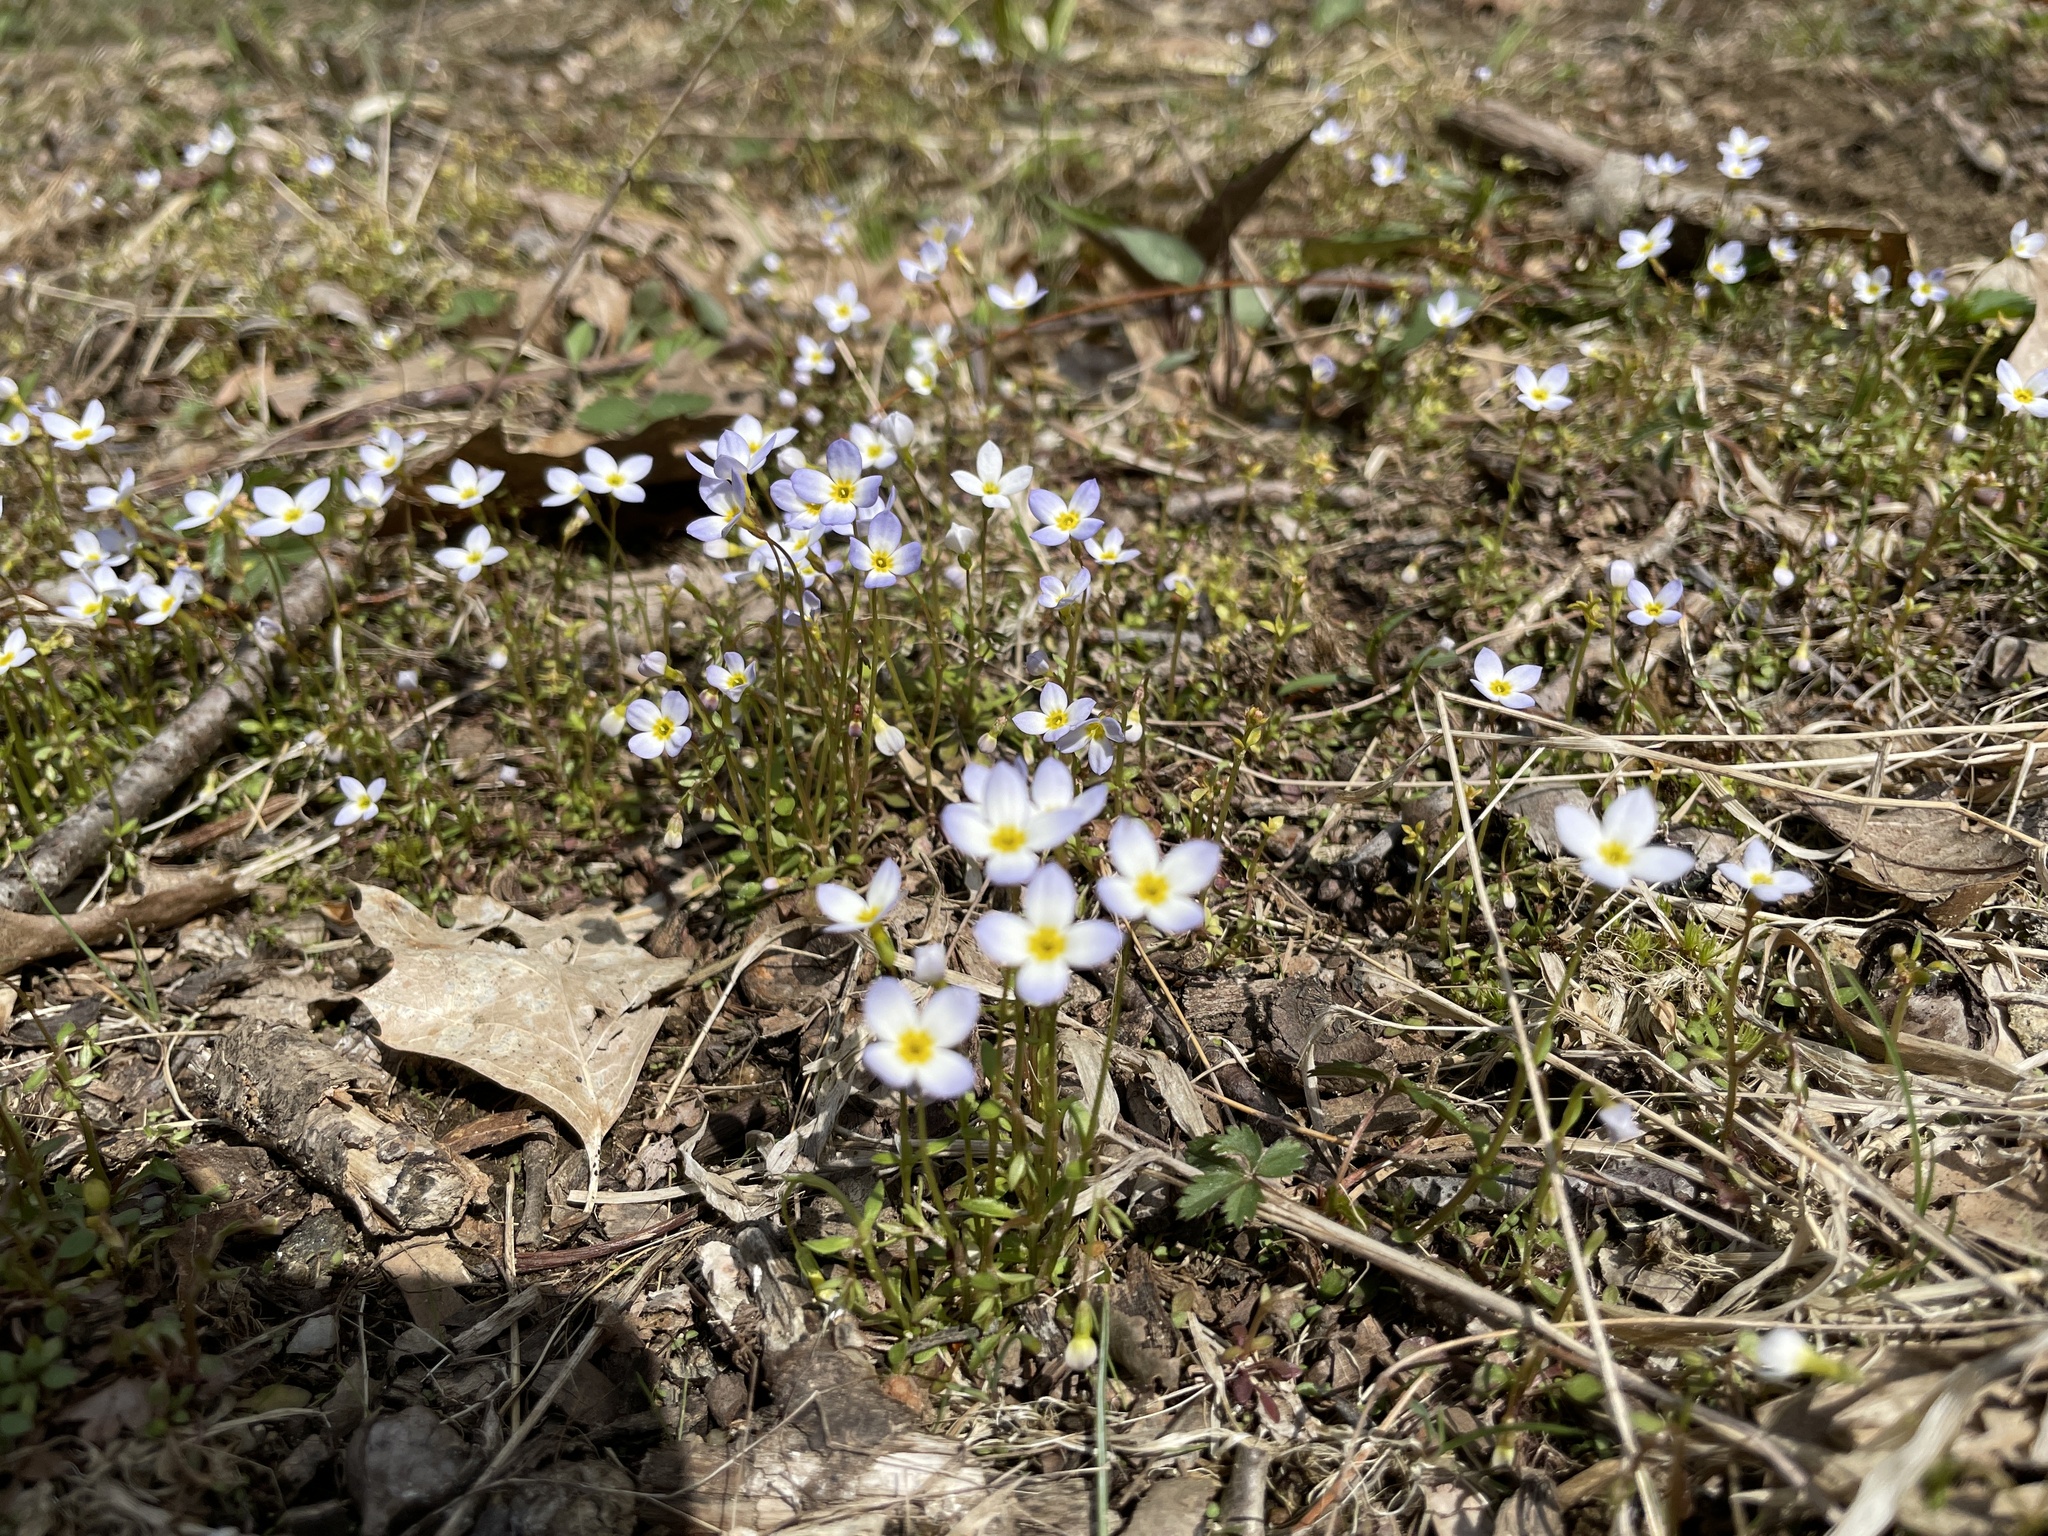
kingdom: Plantae
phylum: Tracheophyta
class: Magnoliopsida
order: Gentianales
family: Rubiaceae
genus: Houstonia
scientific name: Houstonia caerulea
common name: Bluets
